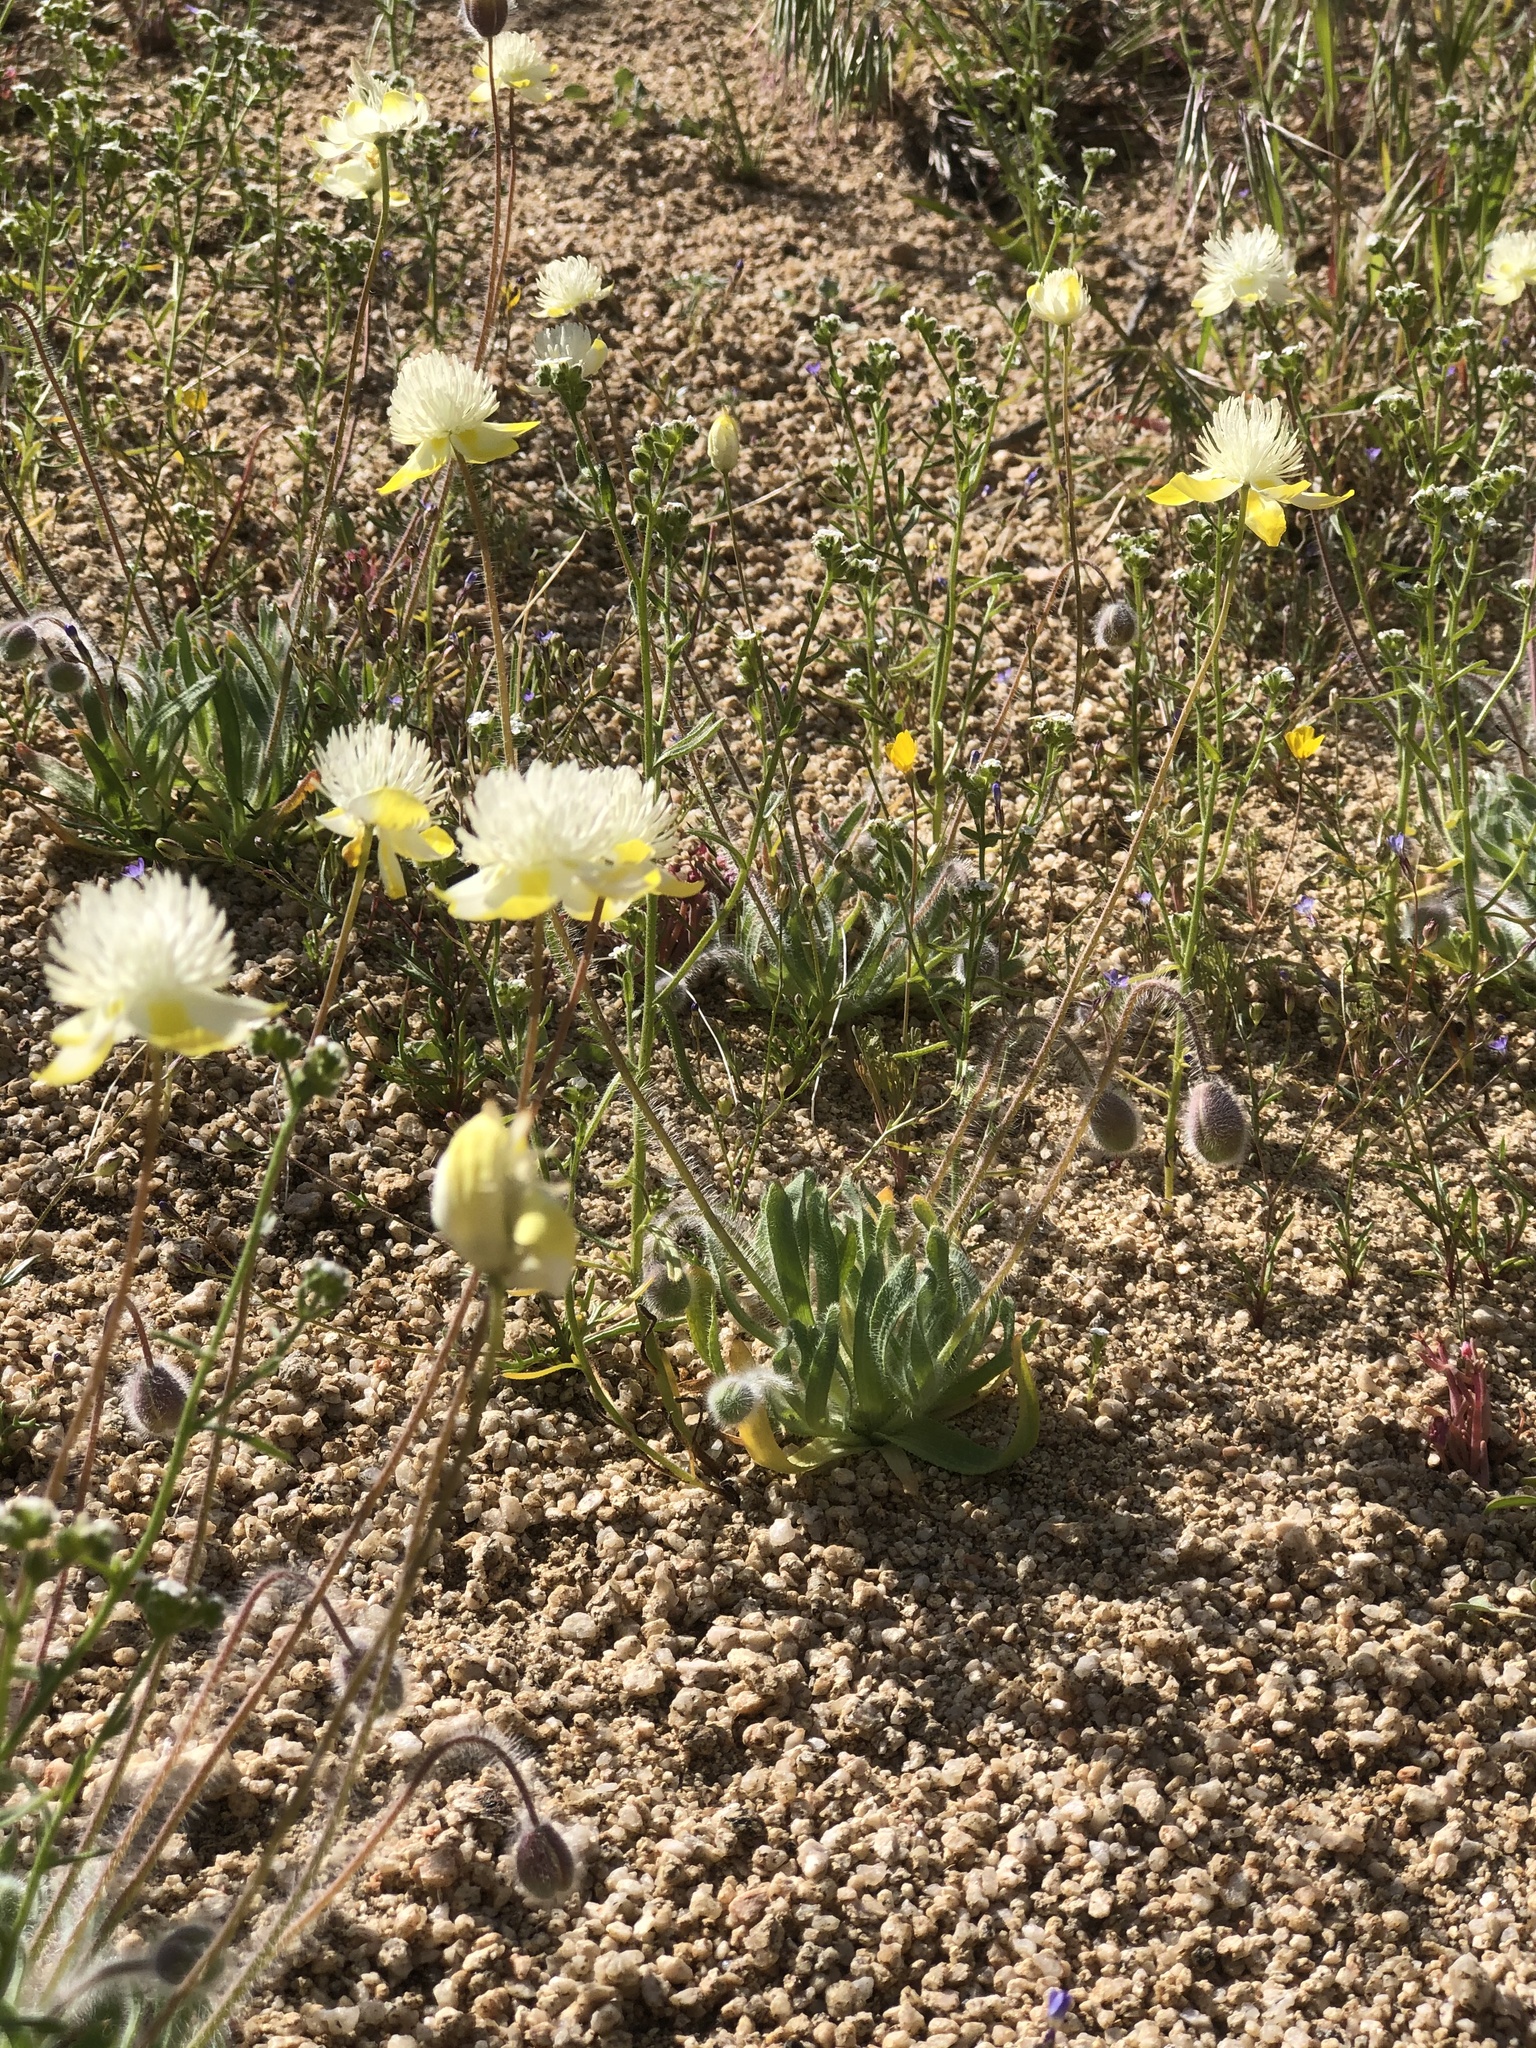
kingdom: Plantae
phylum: Tracheophyta
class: Magnoliopsida
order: Ranunculales
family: Papaveraceae
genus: Platystemon
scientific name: Platystemon californicus
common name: Cream-cups
